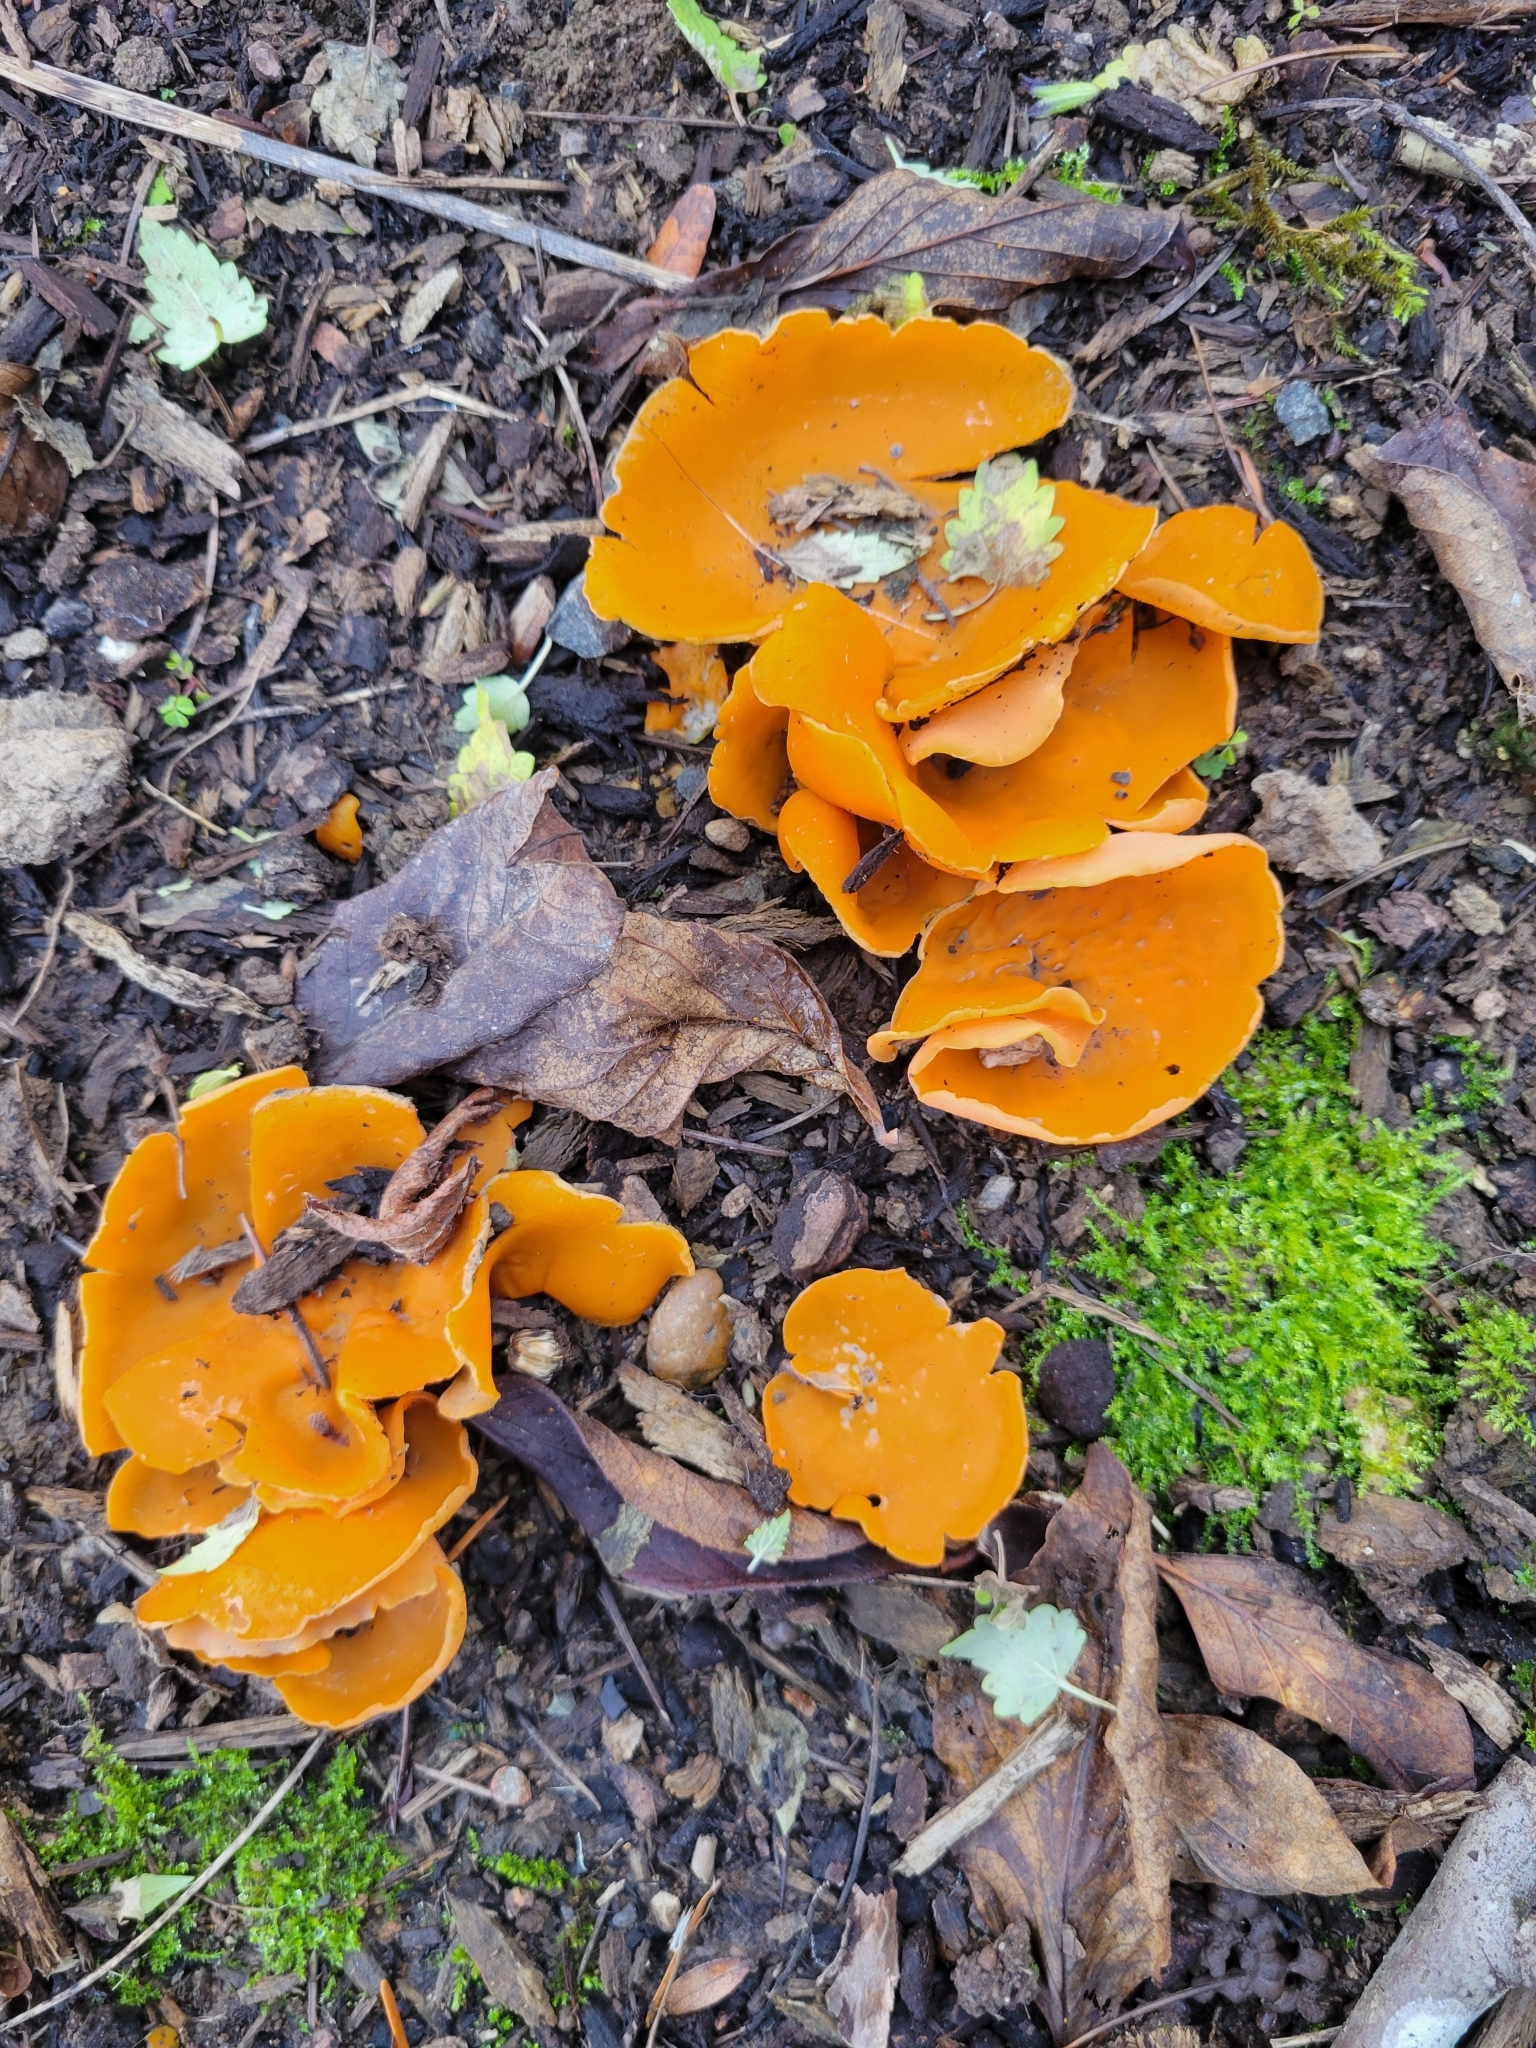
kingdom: Fungi
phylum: Ascomycota
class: Pezizomycetes
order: Pezizales
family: Pyronemataceae
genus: Aleuria
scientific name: Aleuria aurantia
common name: Orange peel fungus
